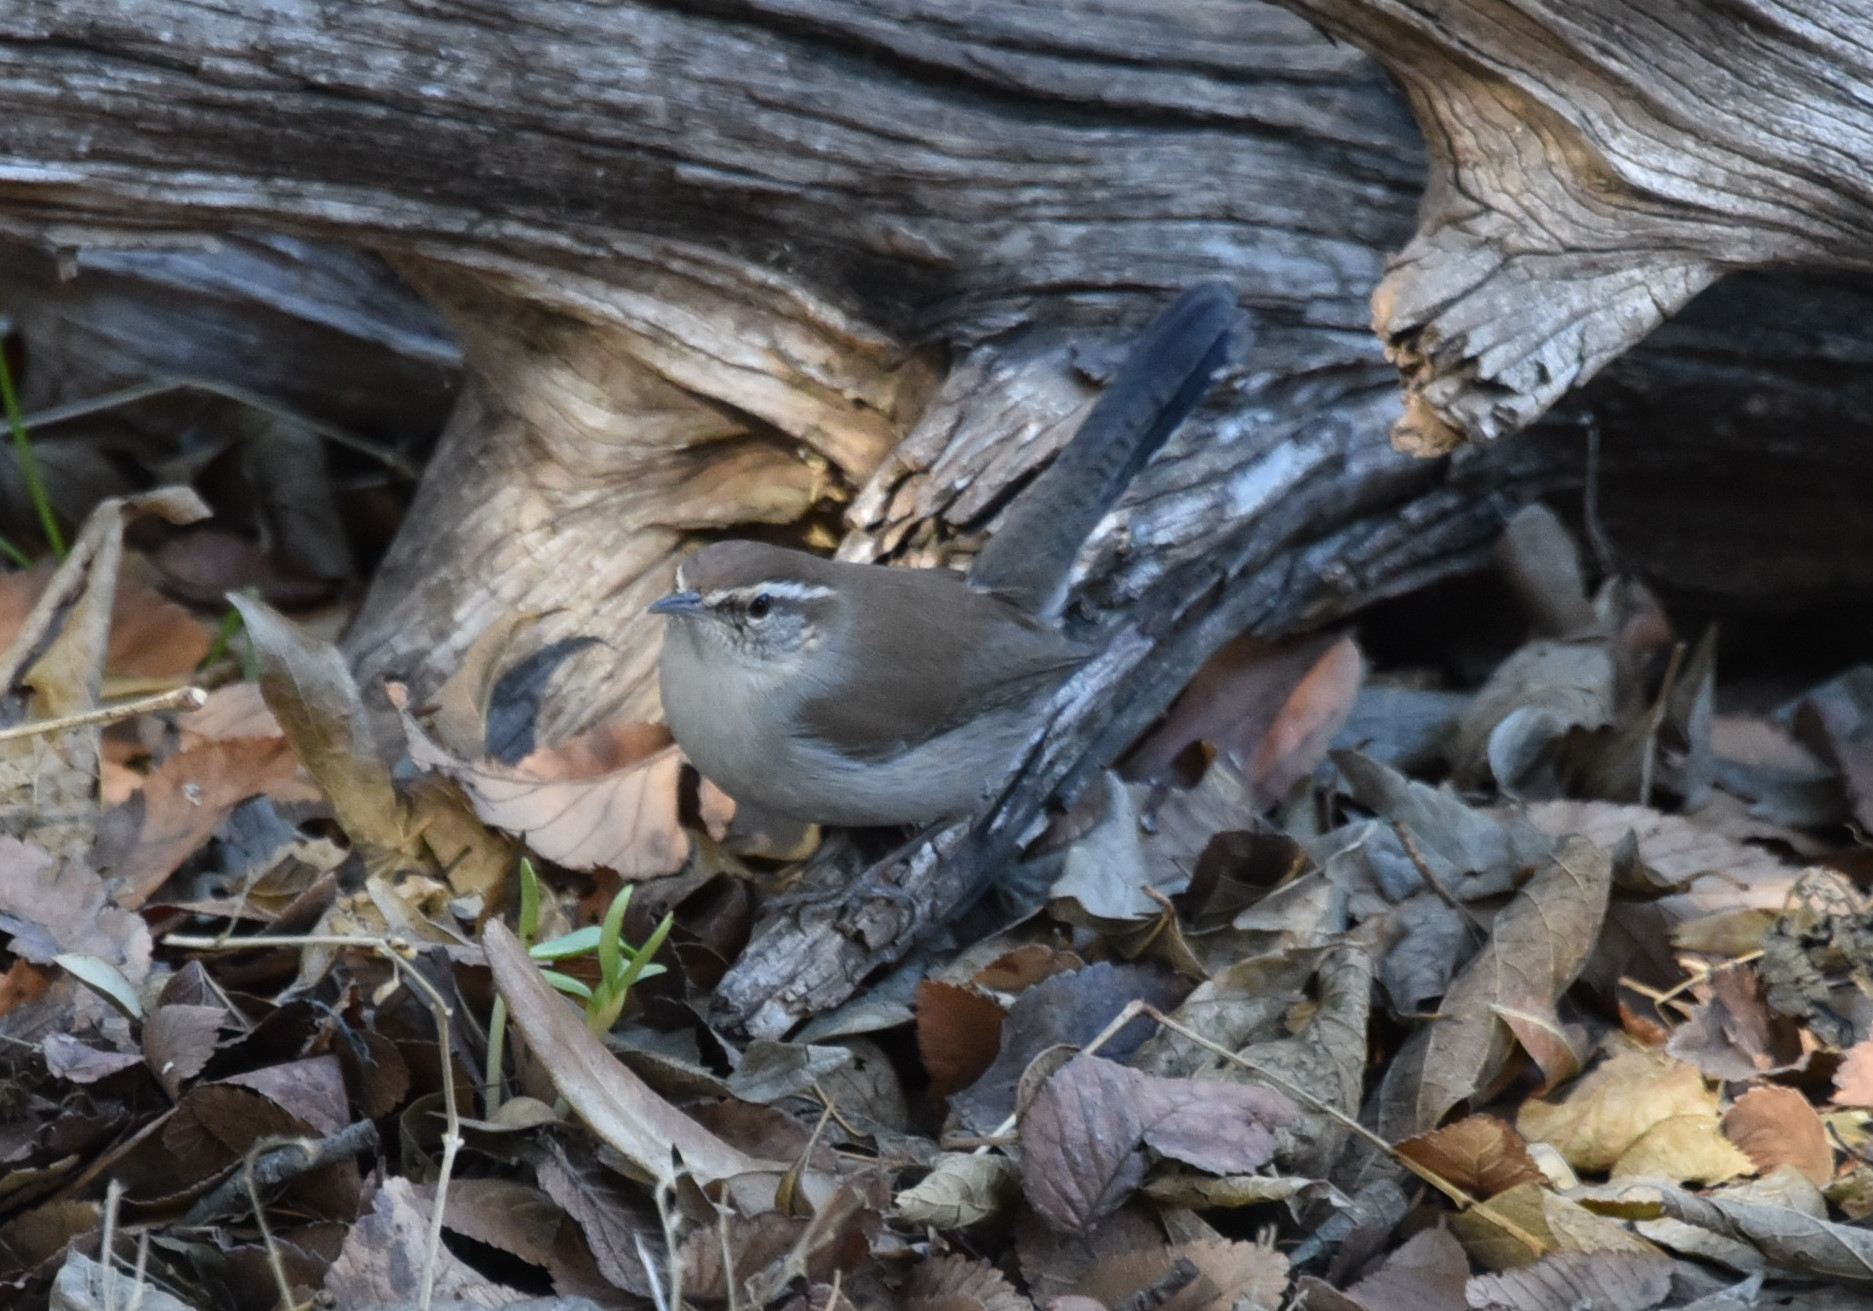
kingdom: Animalia
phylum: Chordata
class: Aves
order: Passeriformes
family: Troglodytidae
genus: Thryomanes
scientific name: Thryomanes bewickii
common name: Bewick's wren
